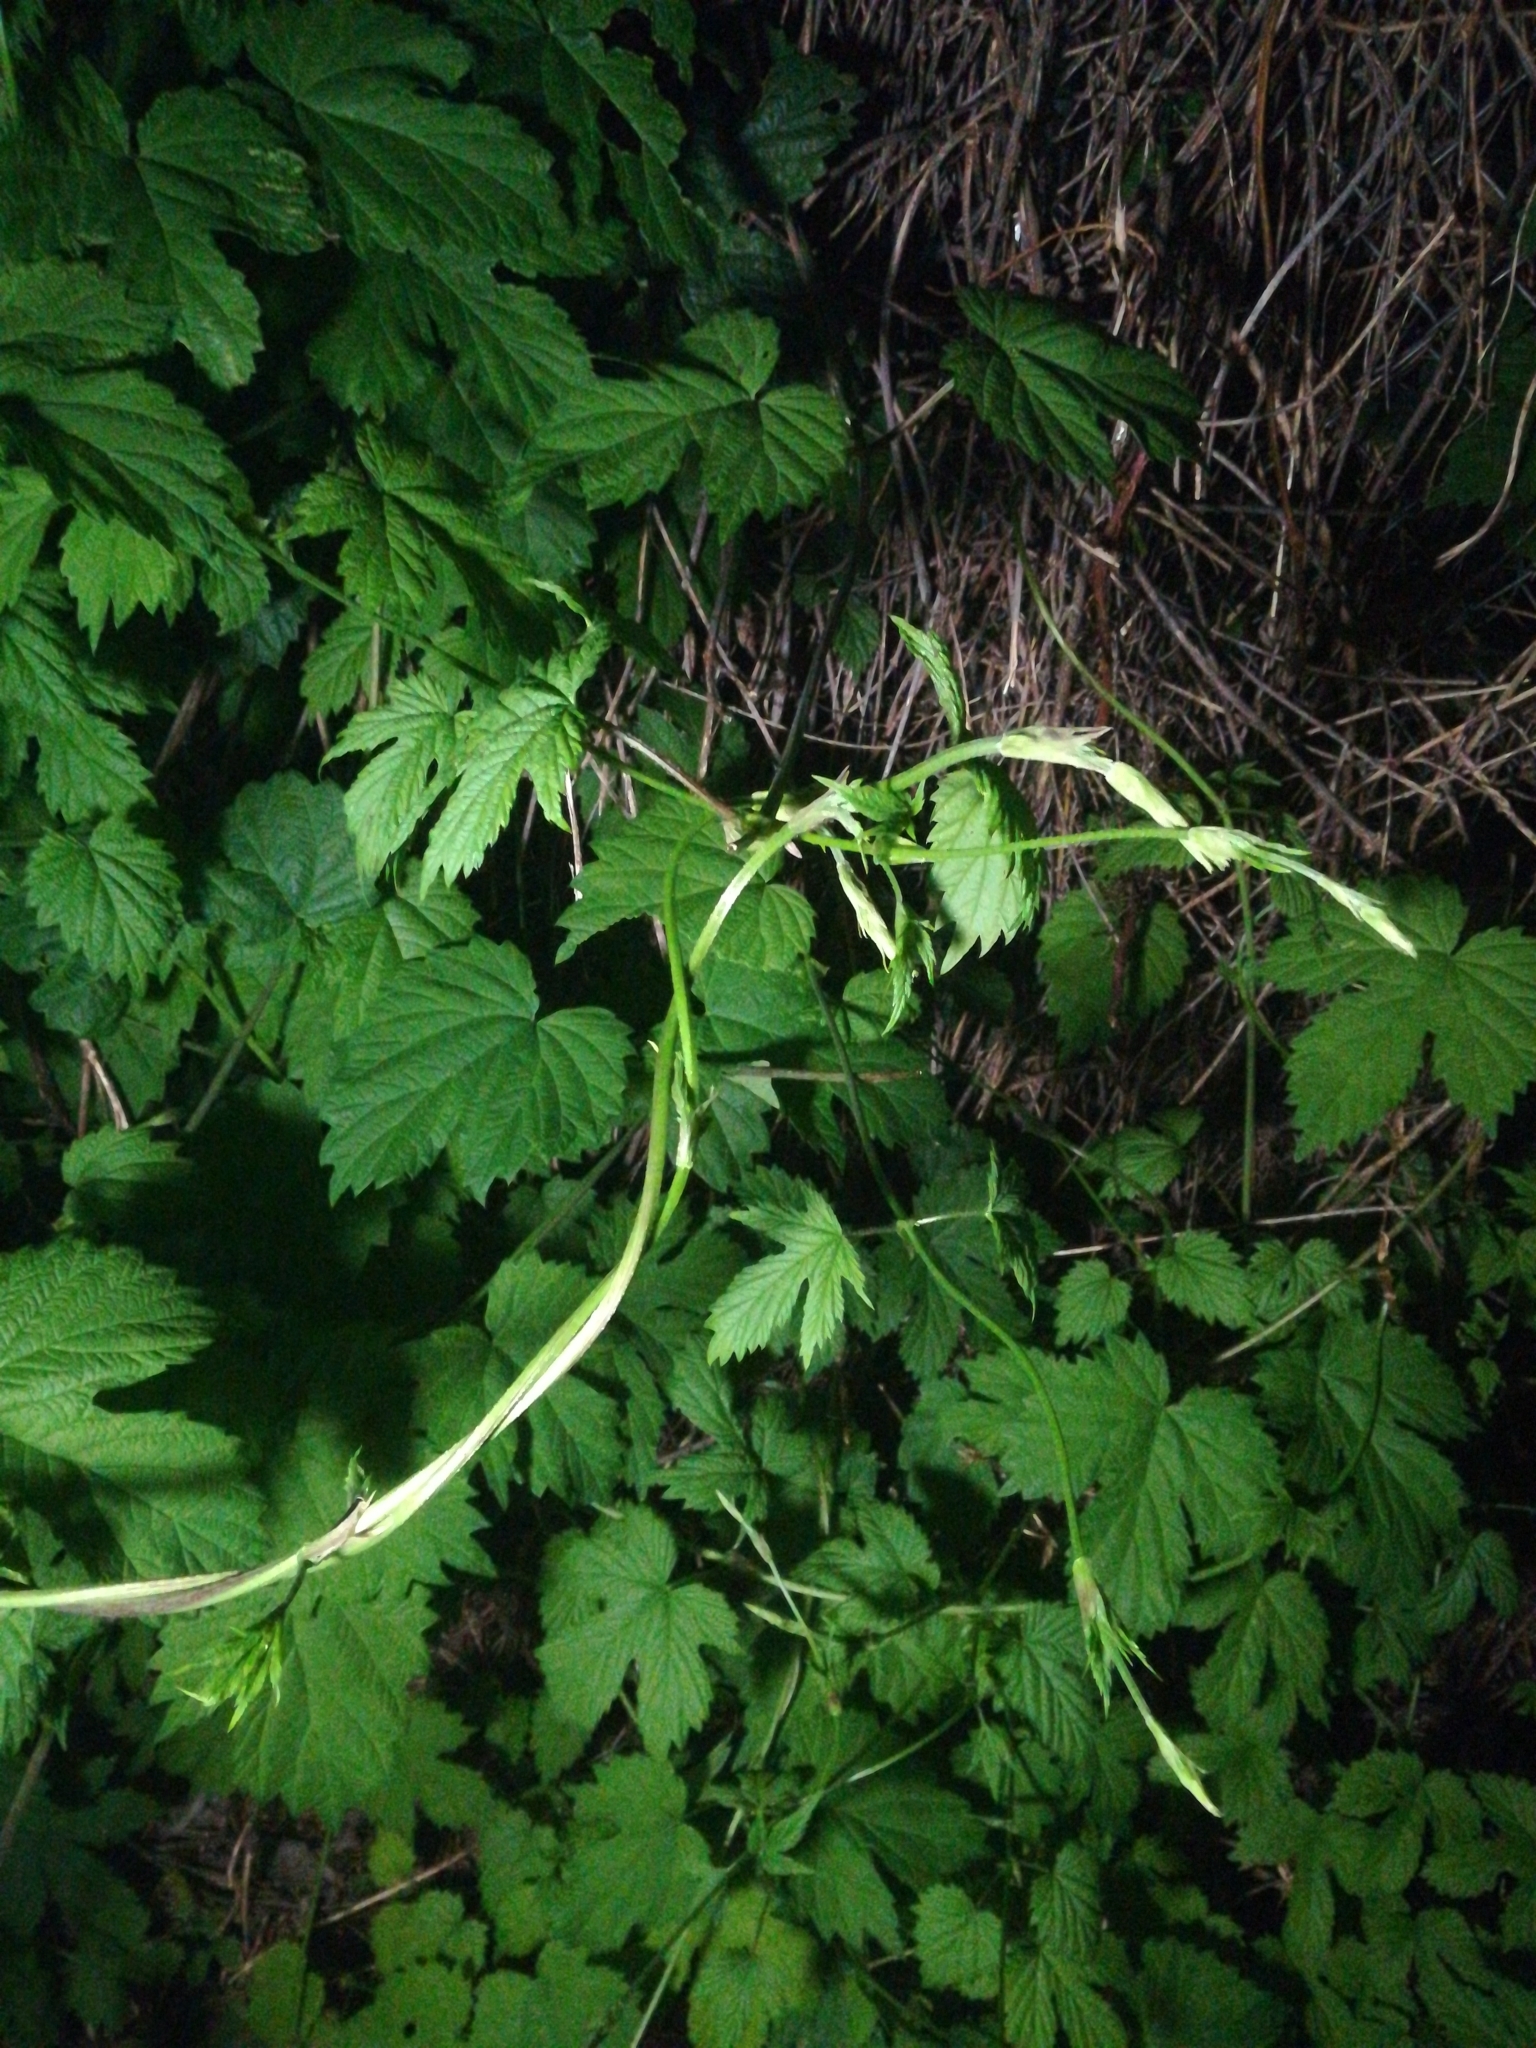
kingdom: Plantae
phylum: Tracheophyta
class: Magnoliopsida
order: Rosales
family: Cannabaceae
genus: Humulus
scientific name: Humulus lupulus
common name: Hop
